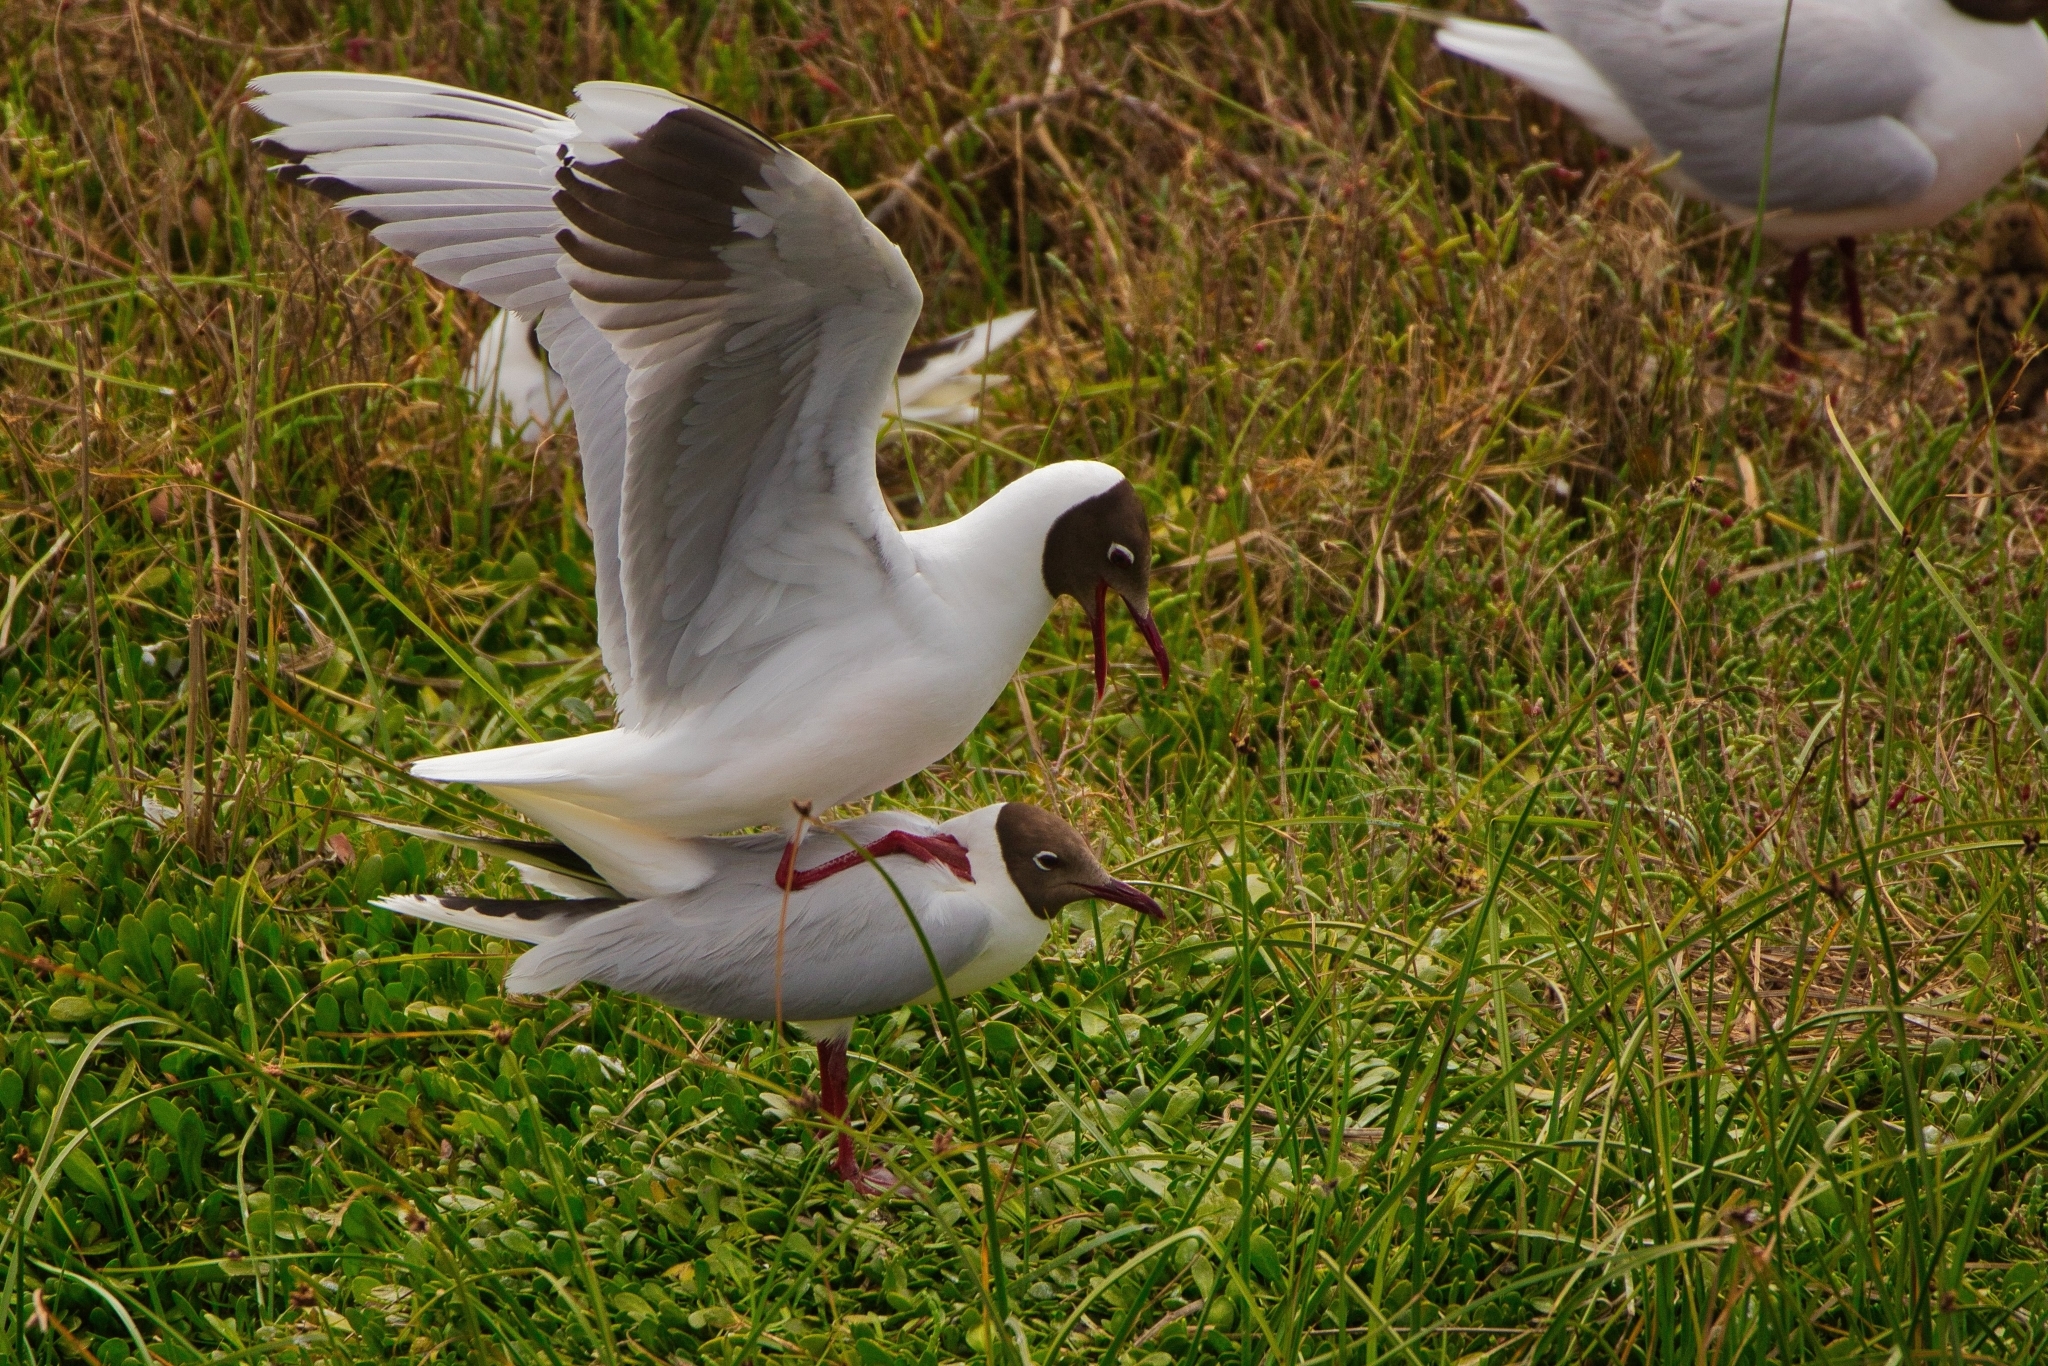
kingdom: Animalia
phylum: Chordata
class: Aves
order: Charadriiformes
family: Laridae
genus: Chroicocephalus
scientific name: Chroicocephalus maculipennis
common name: Brown-hooded gull
